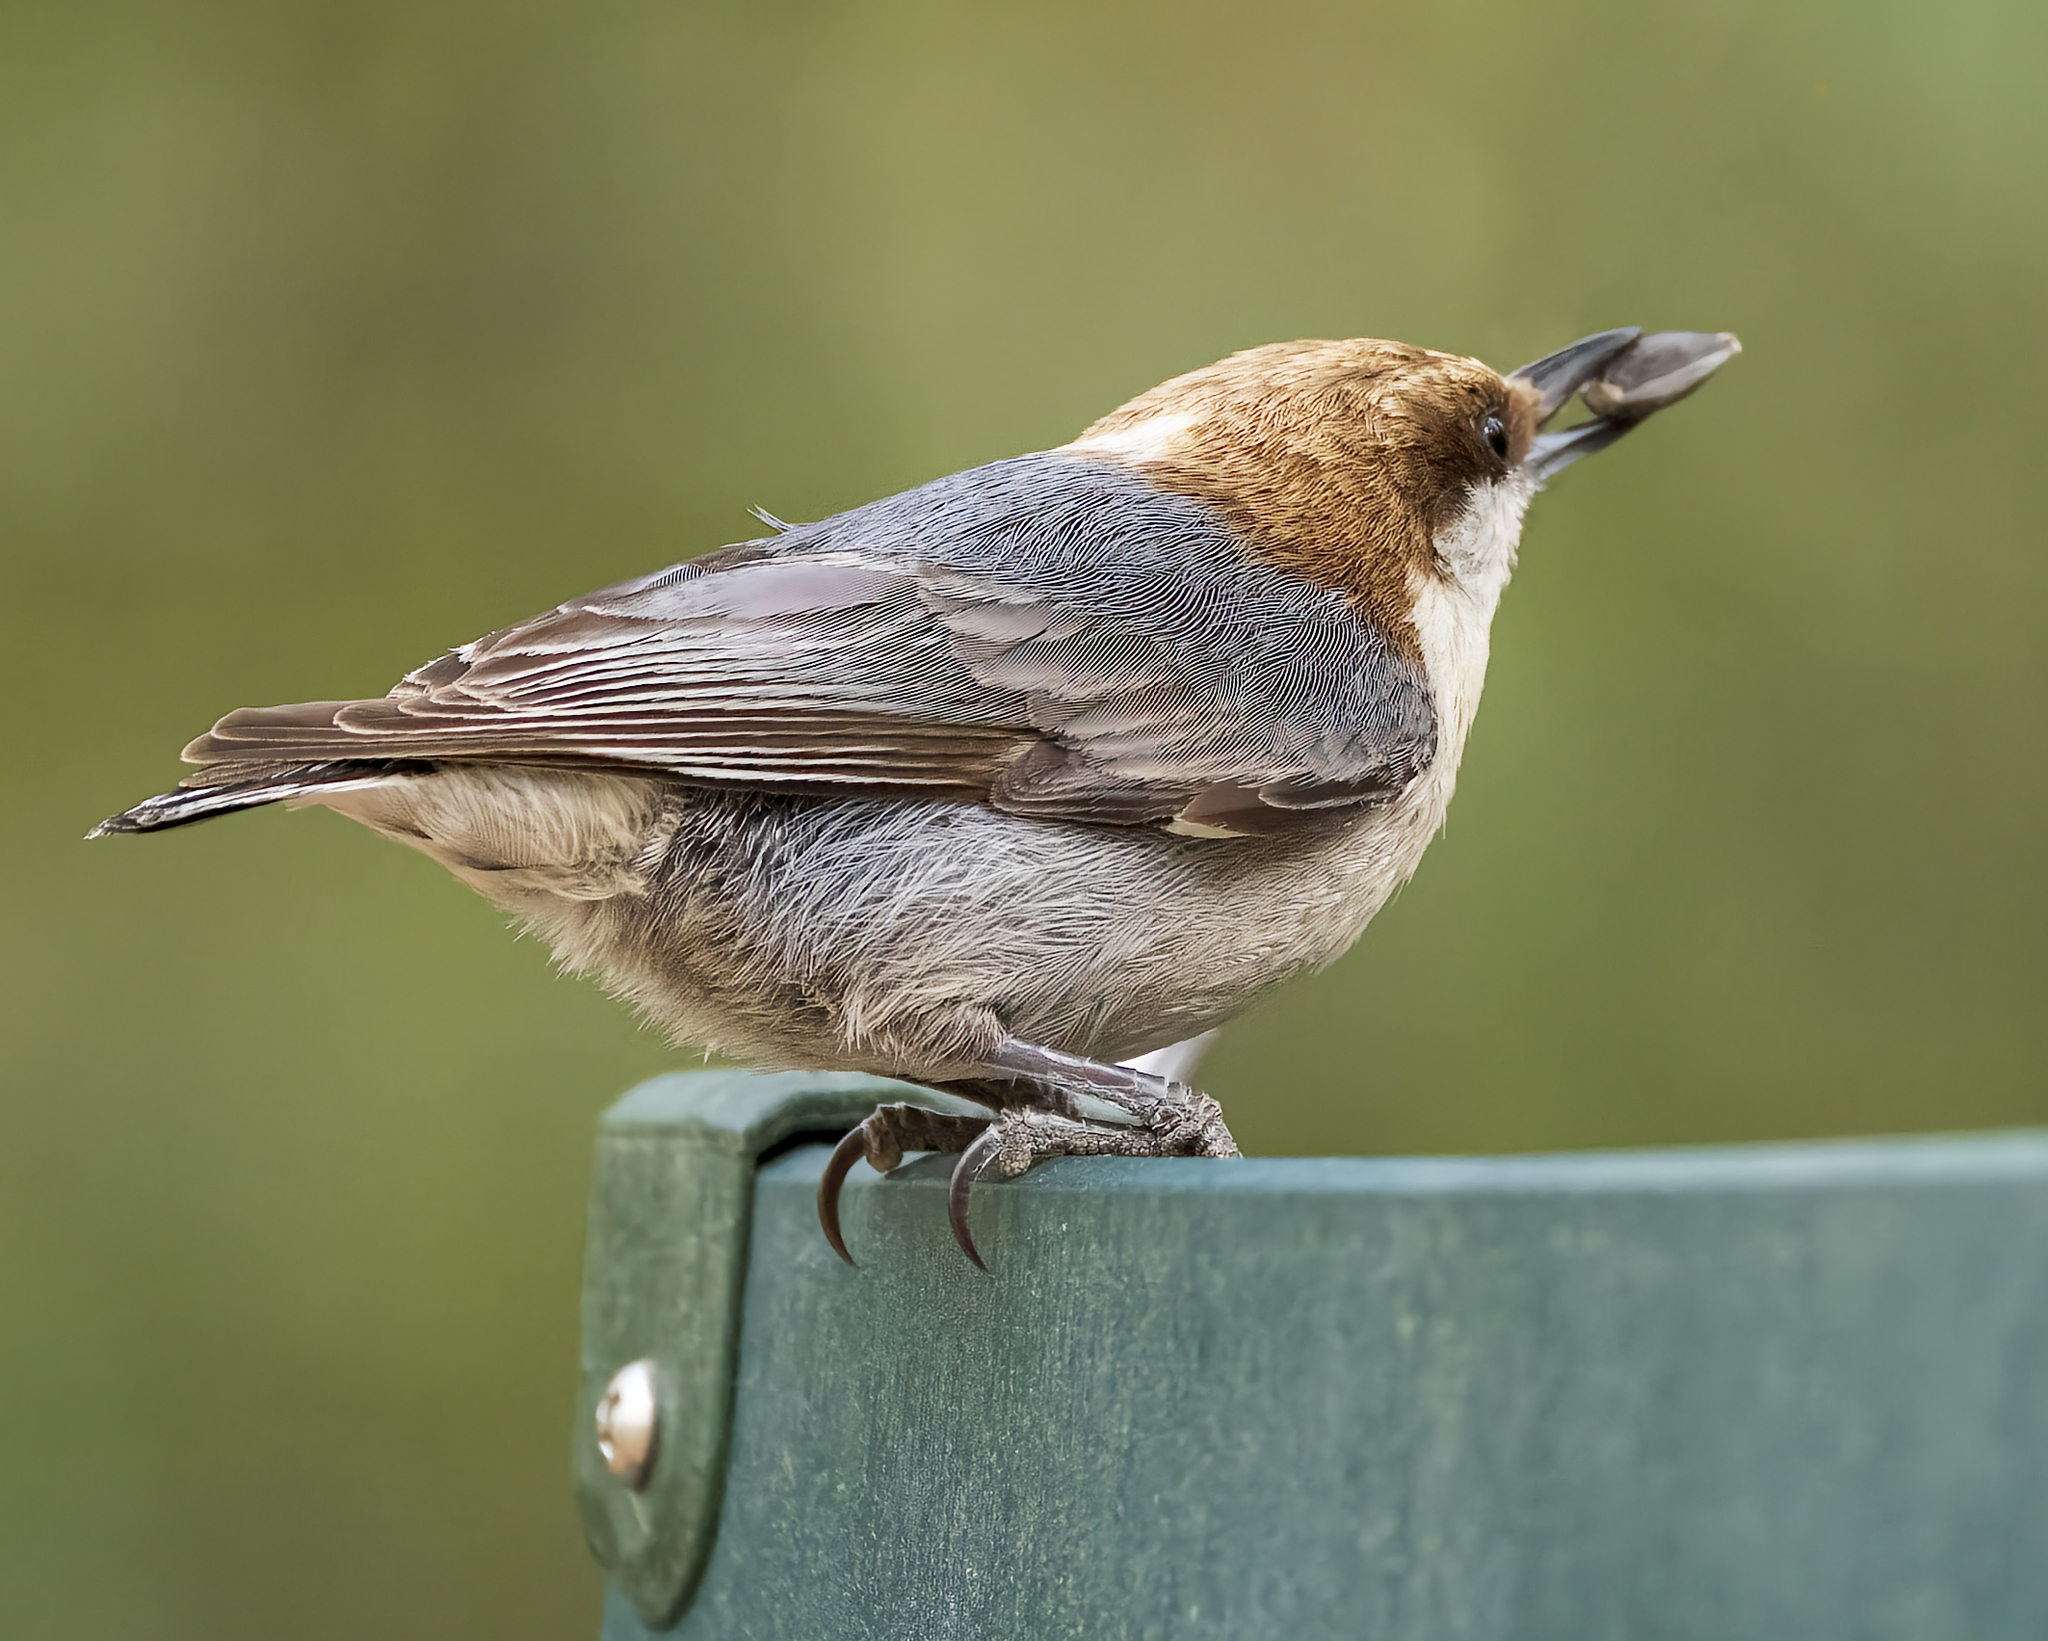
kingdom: Animalia
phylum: Chordata
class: Aves
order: Passeriformes
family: Sittidae
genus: Sitta
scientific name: Sitta pusilla
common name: Brown-headed nuthatch
